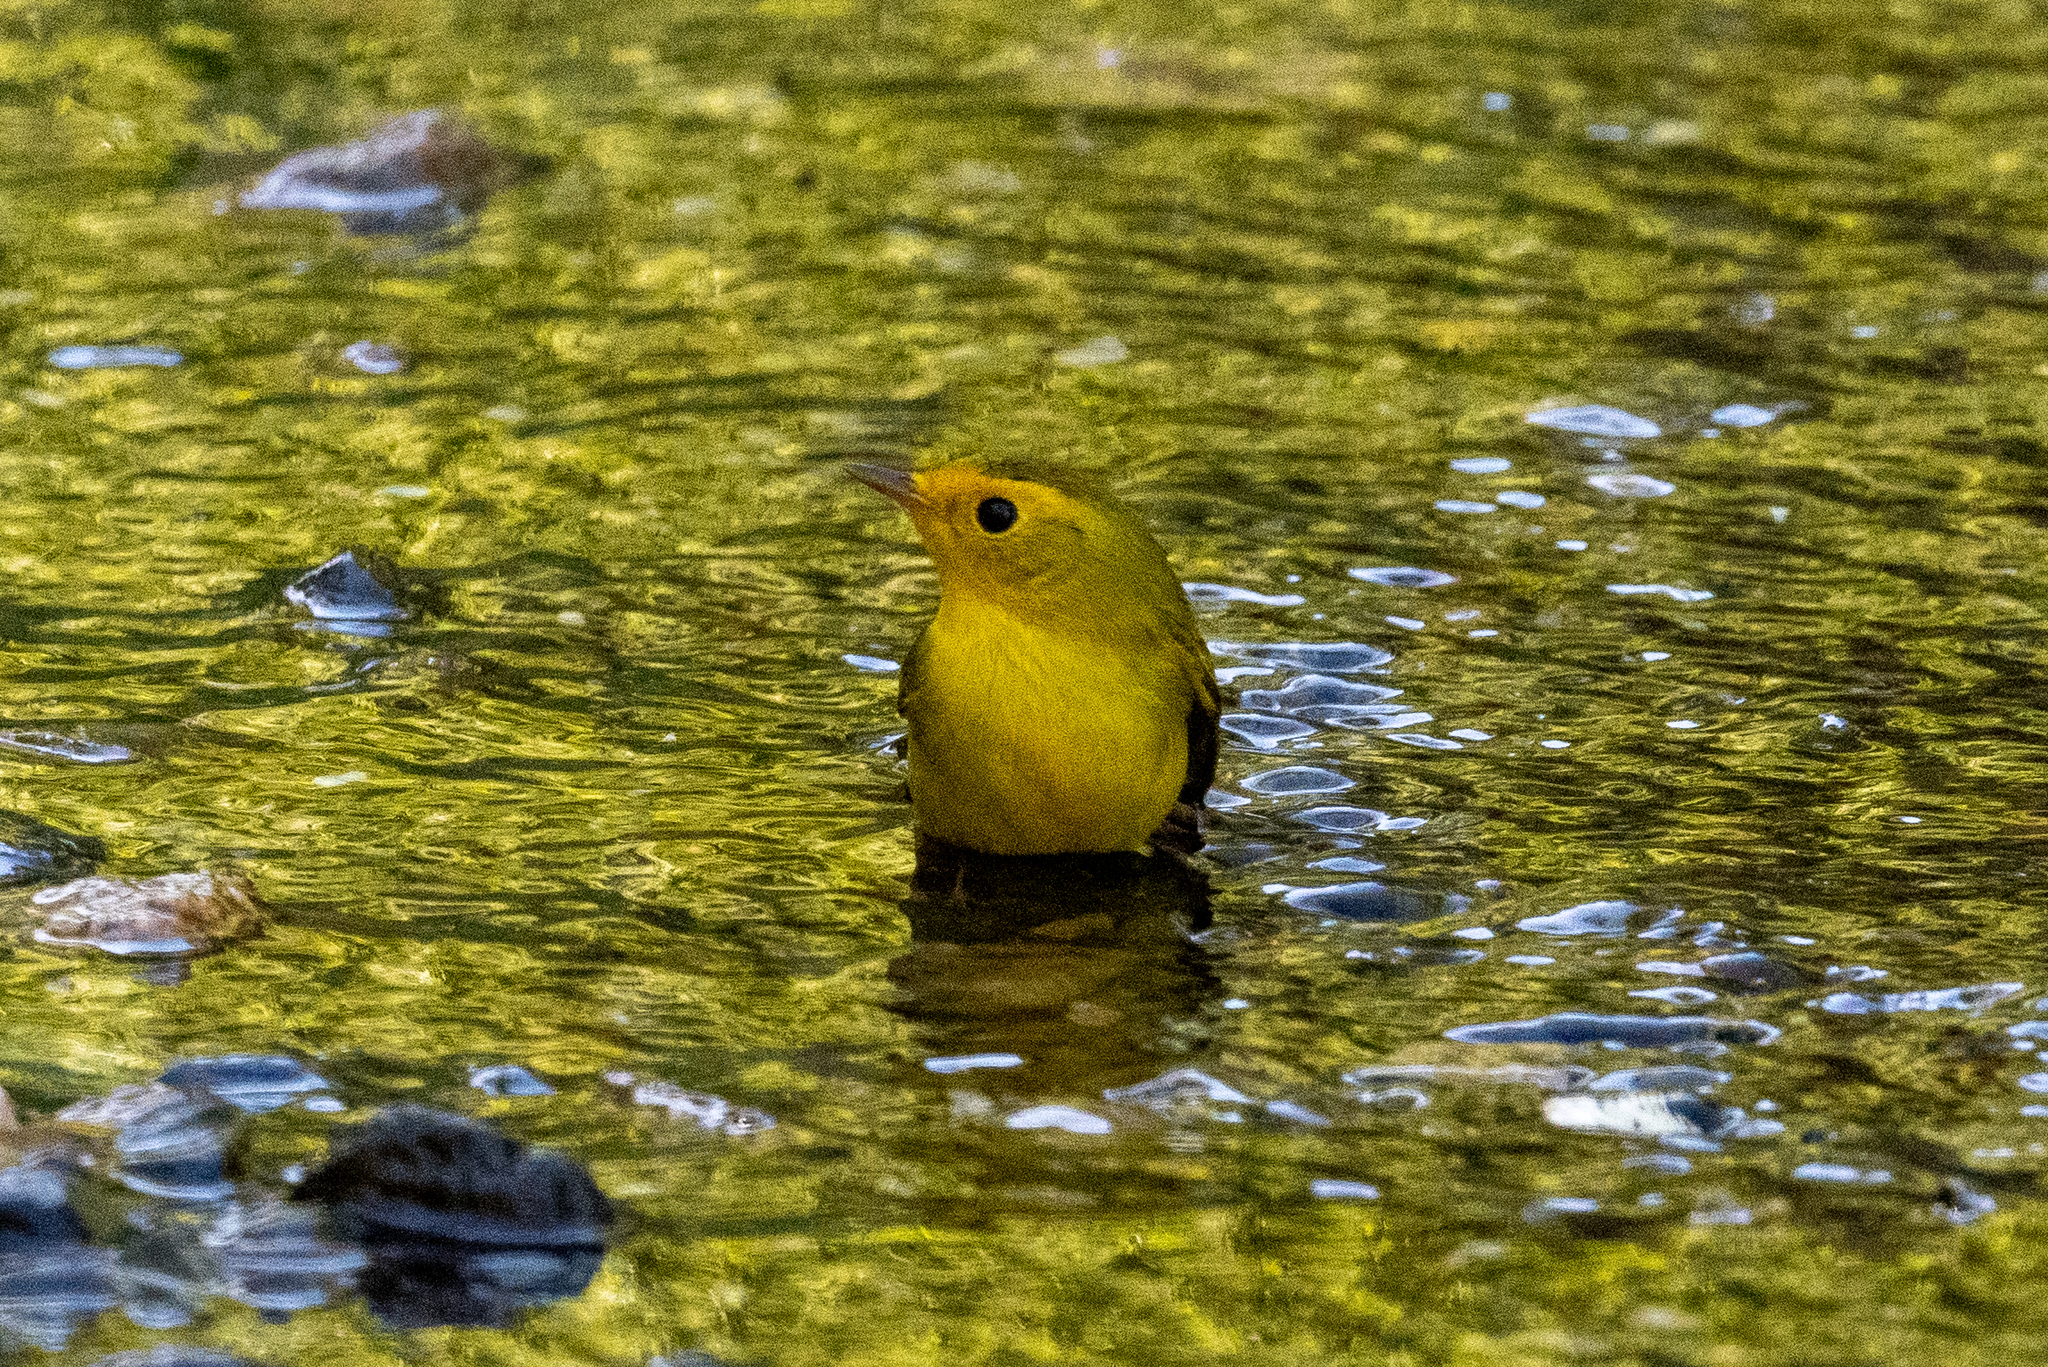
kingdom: Animalia
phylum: Chordata
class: Aves
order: Passeriformes
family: Parulidae
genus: Cardellina
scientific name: Cardellina pusilla
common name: Wilson's warbler
